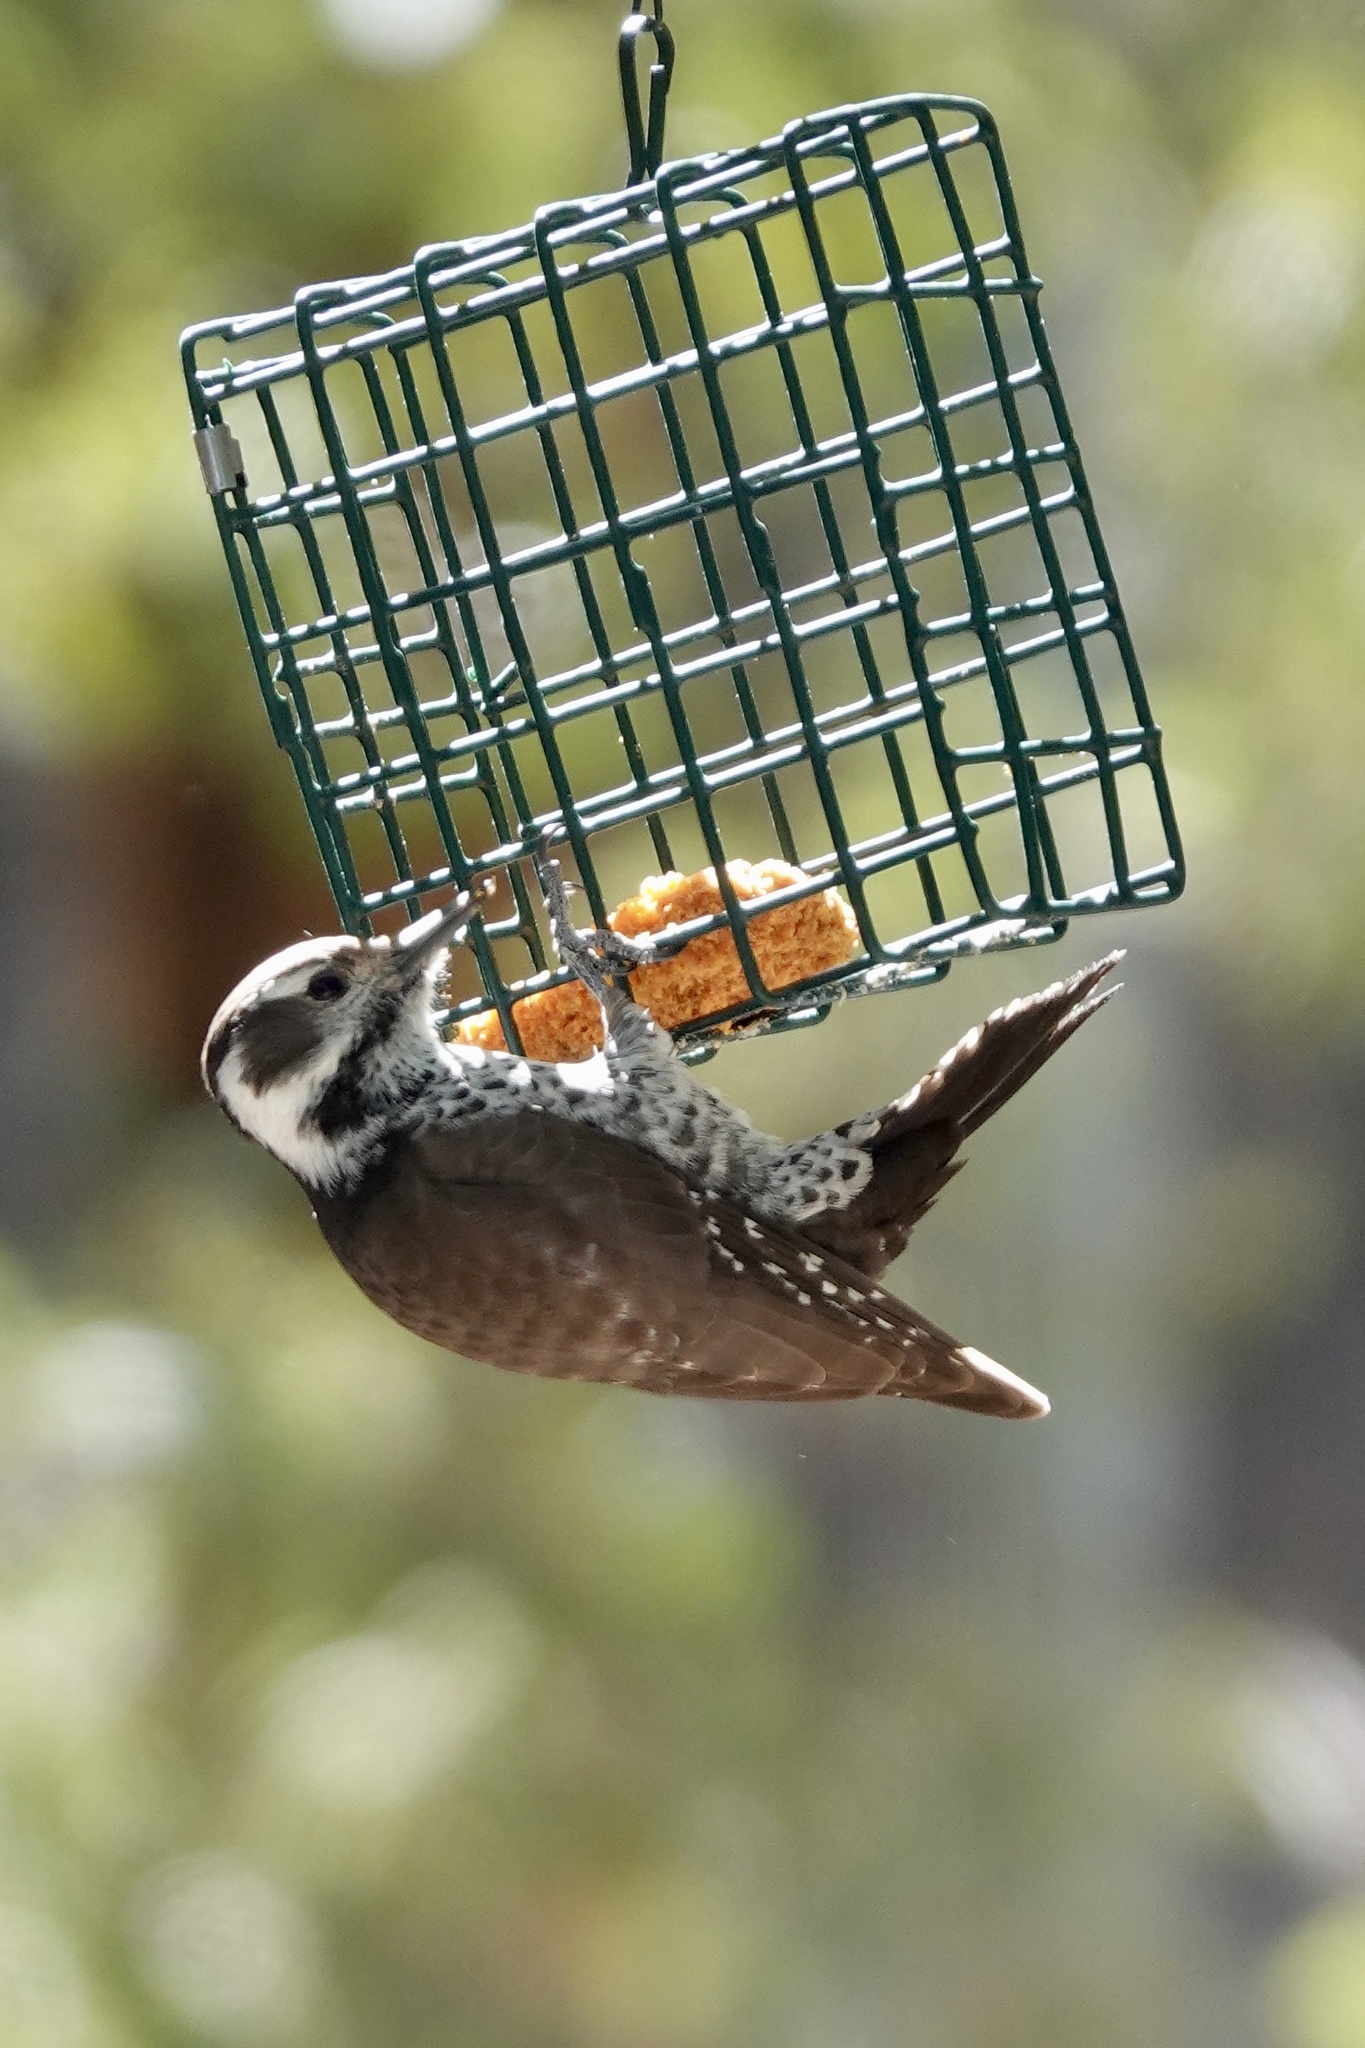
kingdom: Animalia
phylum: Chordata
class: Aves
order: Piciformes
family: Picidae
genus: Leuconotopicus
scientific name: Leuconotopicus arizonae
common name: Arizona woodpecker
